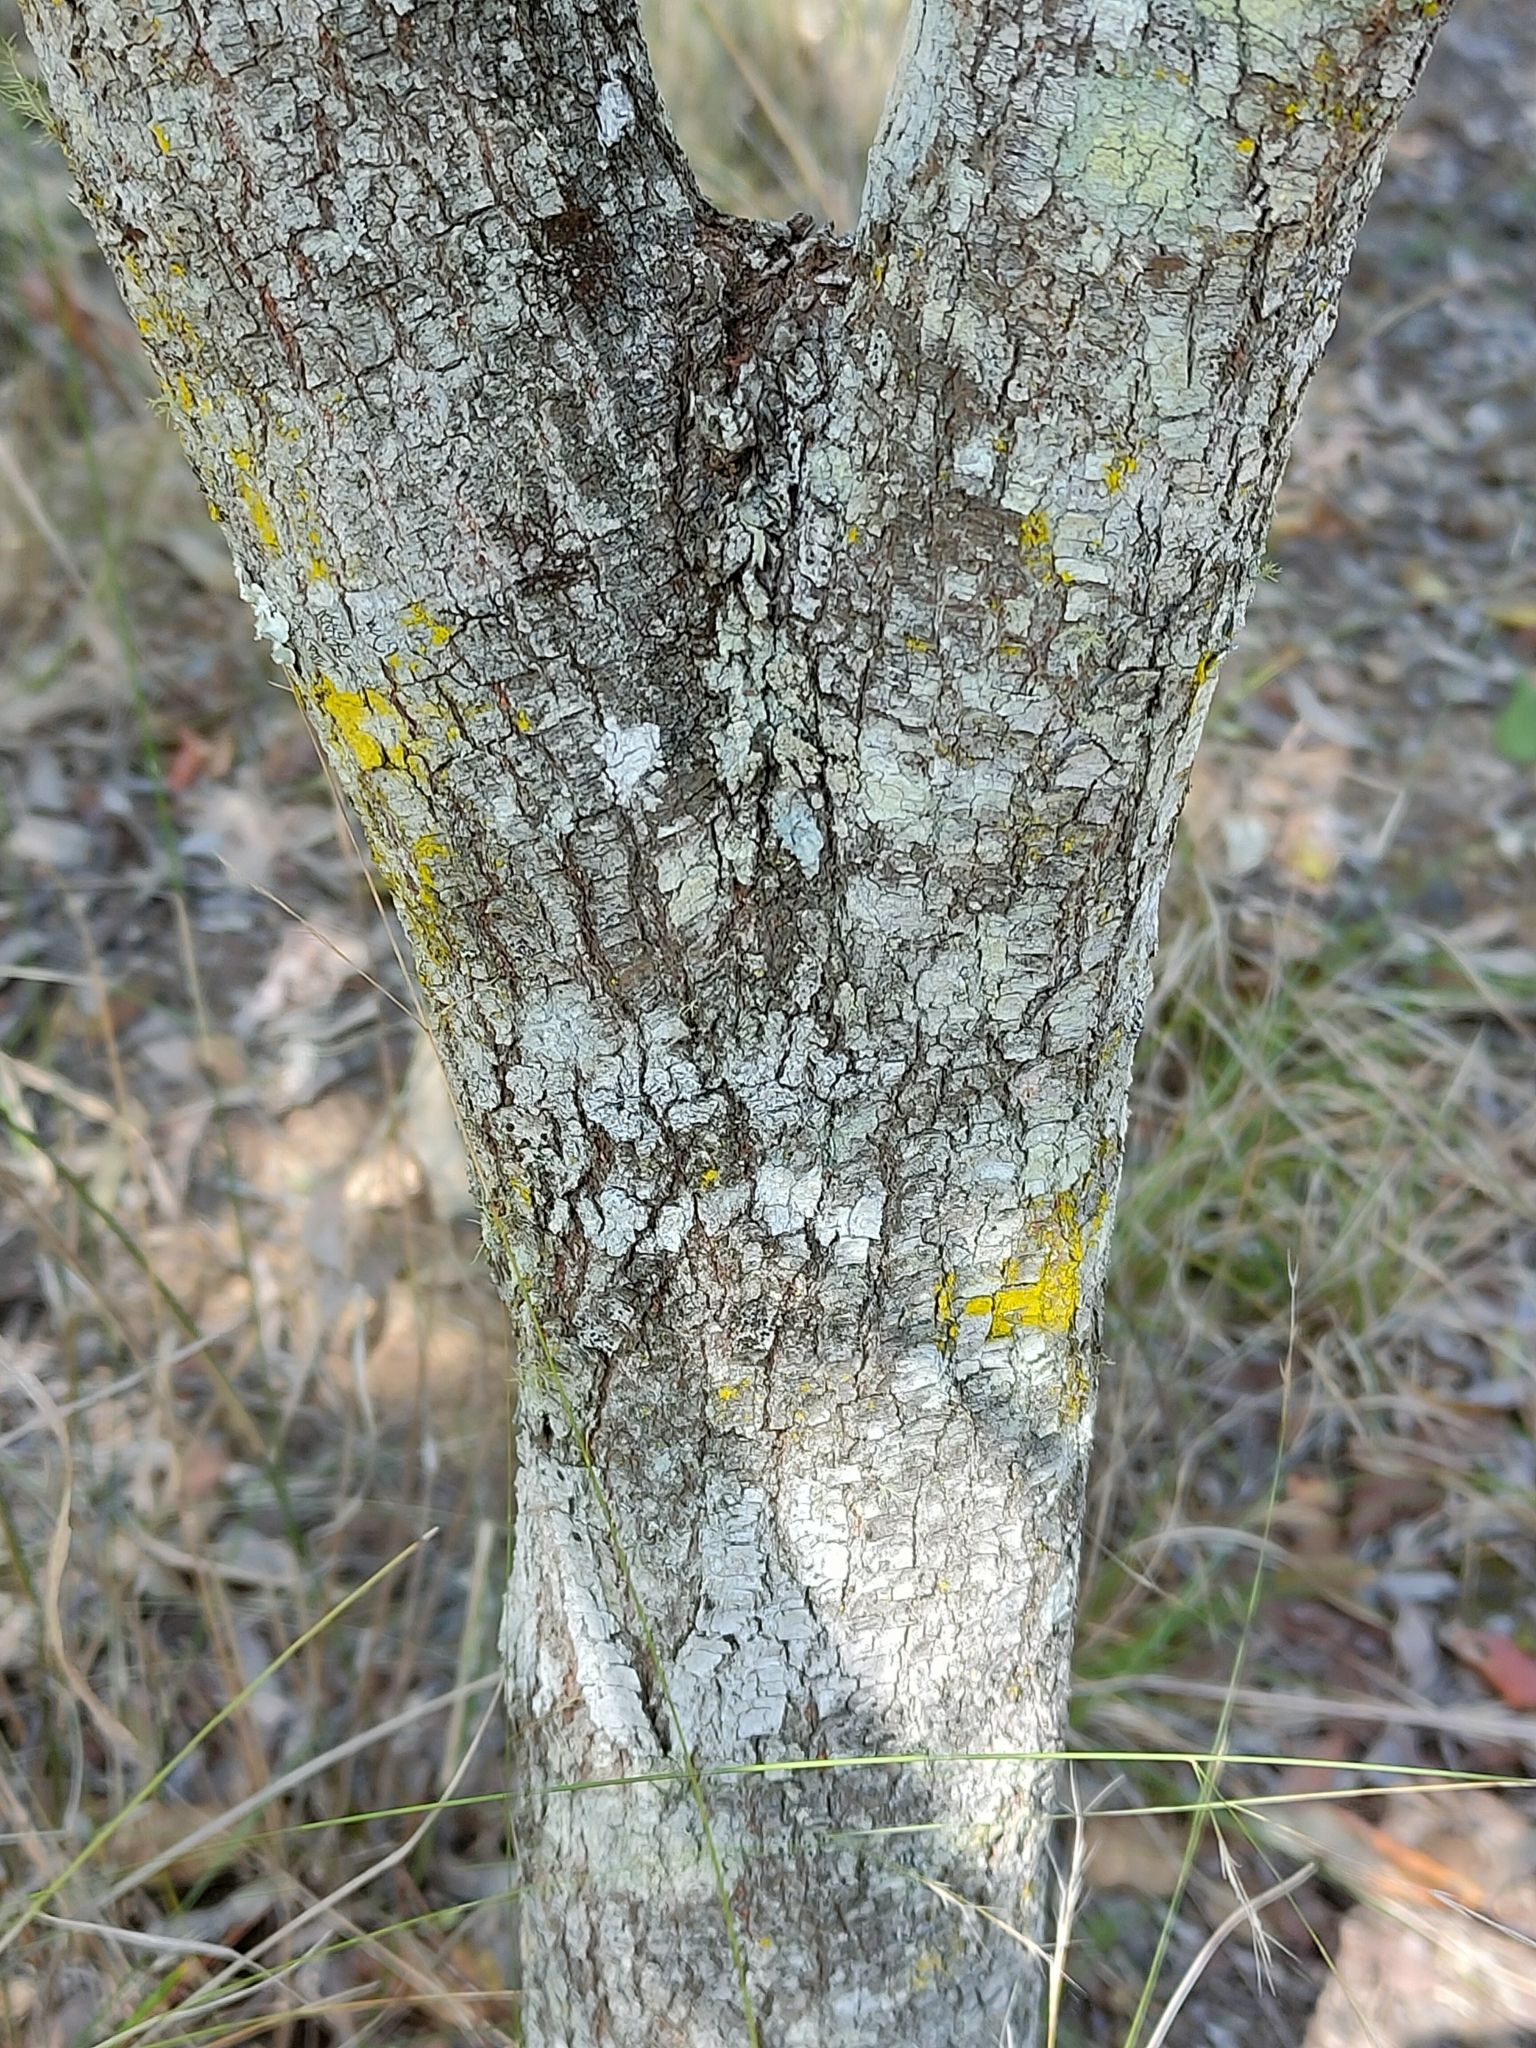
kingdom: Plantae
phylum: Tracheophyta
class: Magnoliopsida
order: Malpighiales
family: Phyllanthaceae
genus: Bridelia
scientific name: Bridelia leichhardtii
